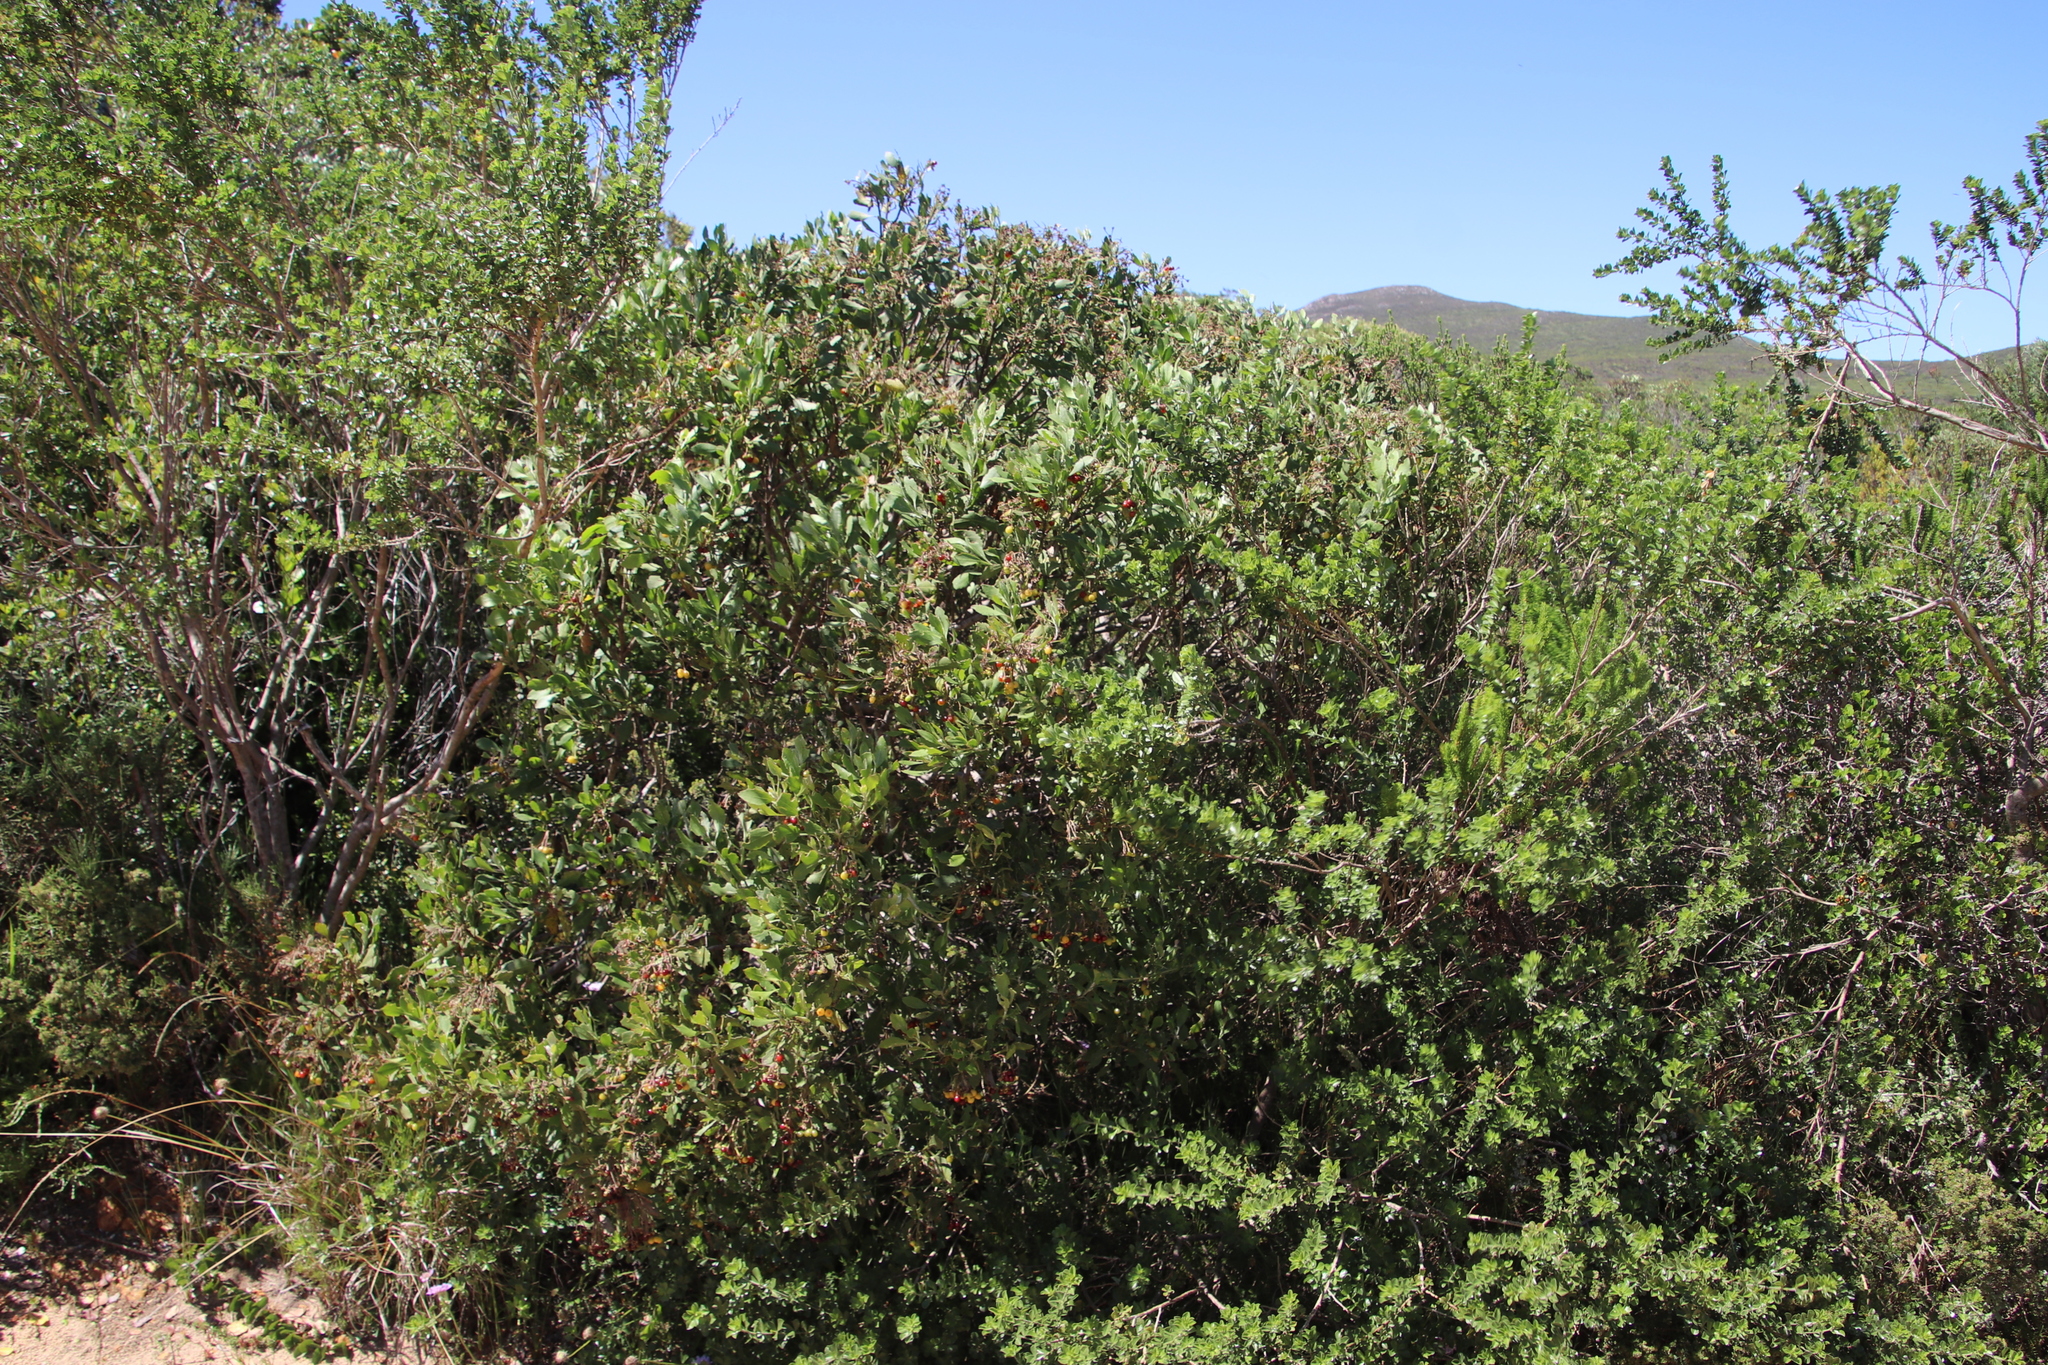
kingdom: Plantae
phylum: Tracheophyta
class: Magnoliopsida
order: Asterales
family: Asteraceae
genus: Osteospermum
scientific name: Osteospermum moniliferum
